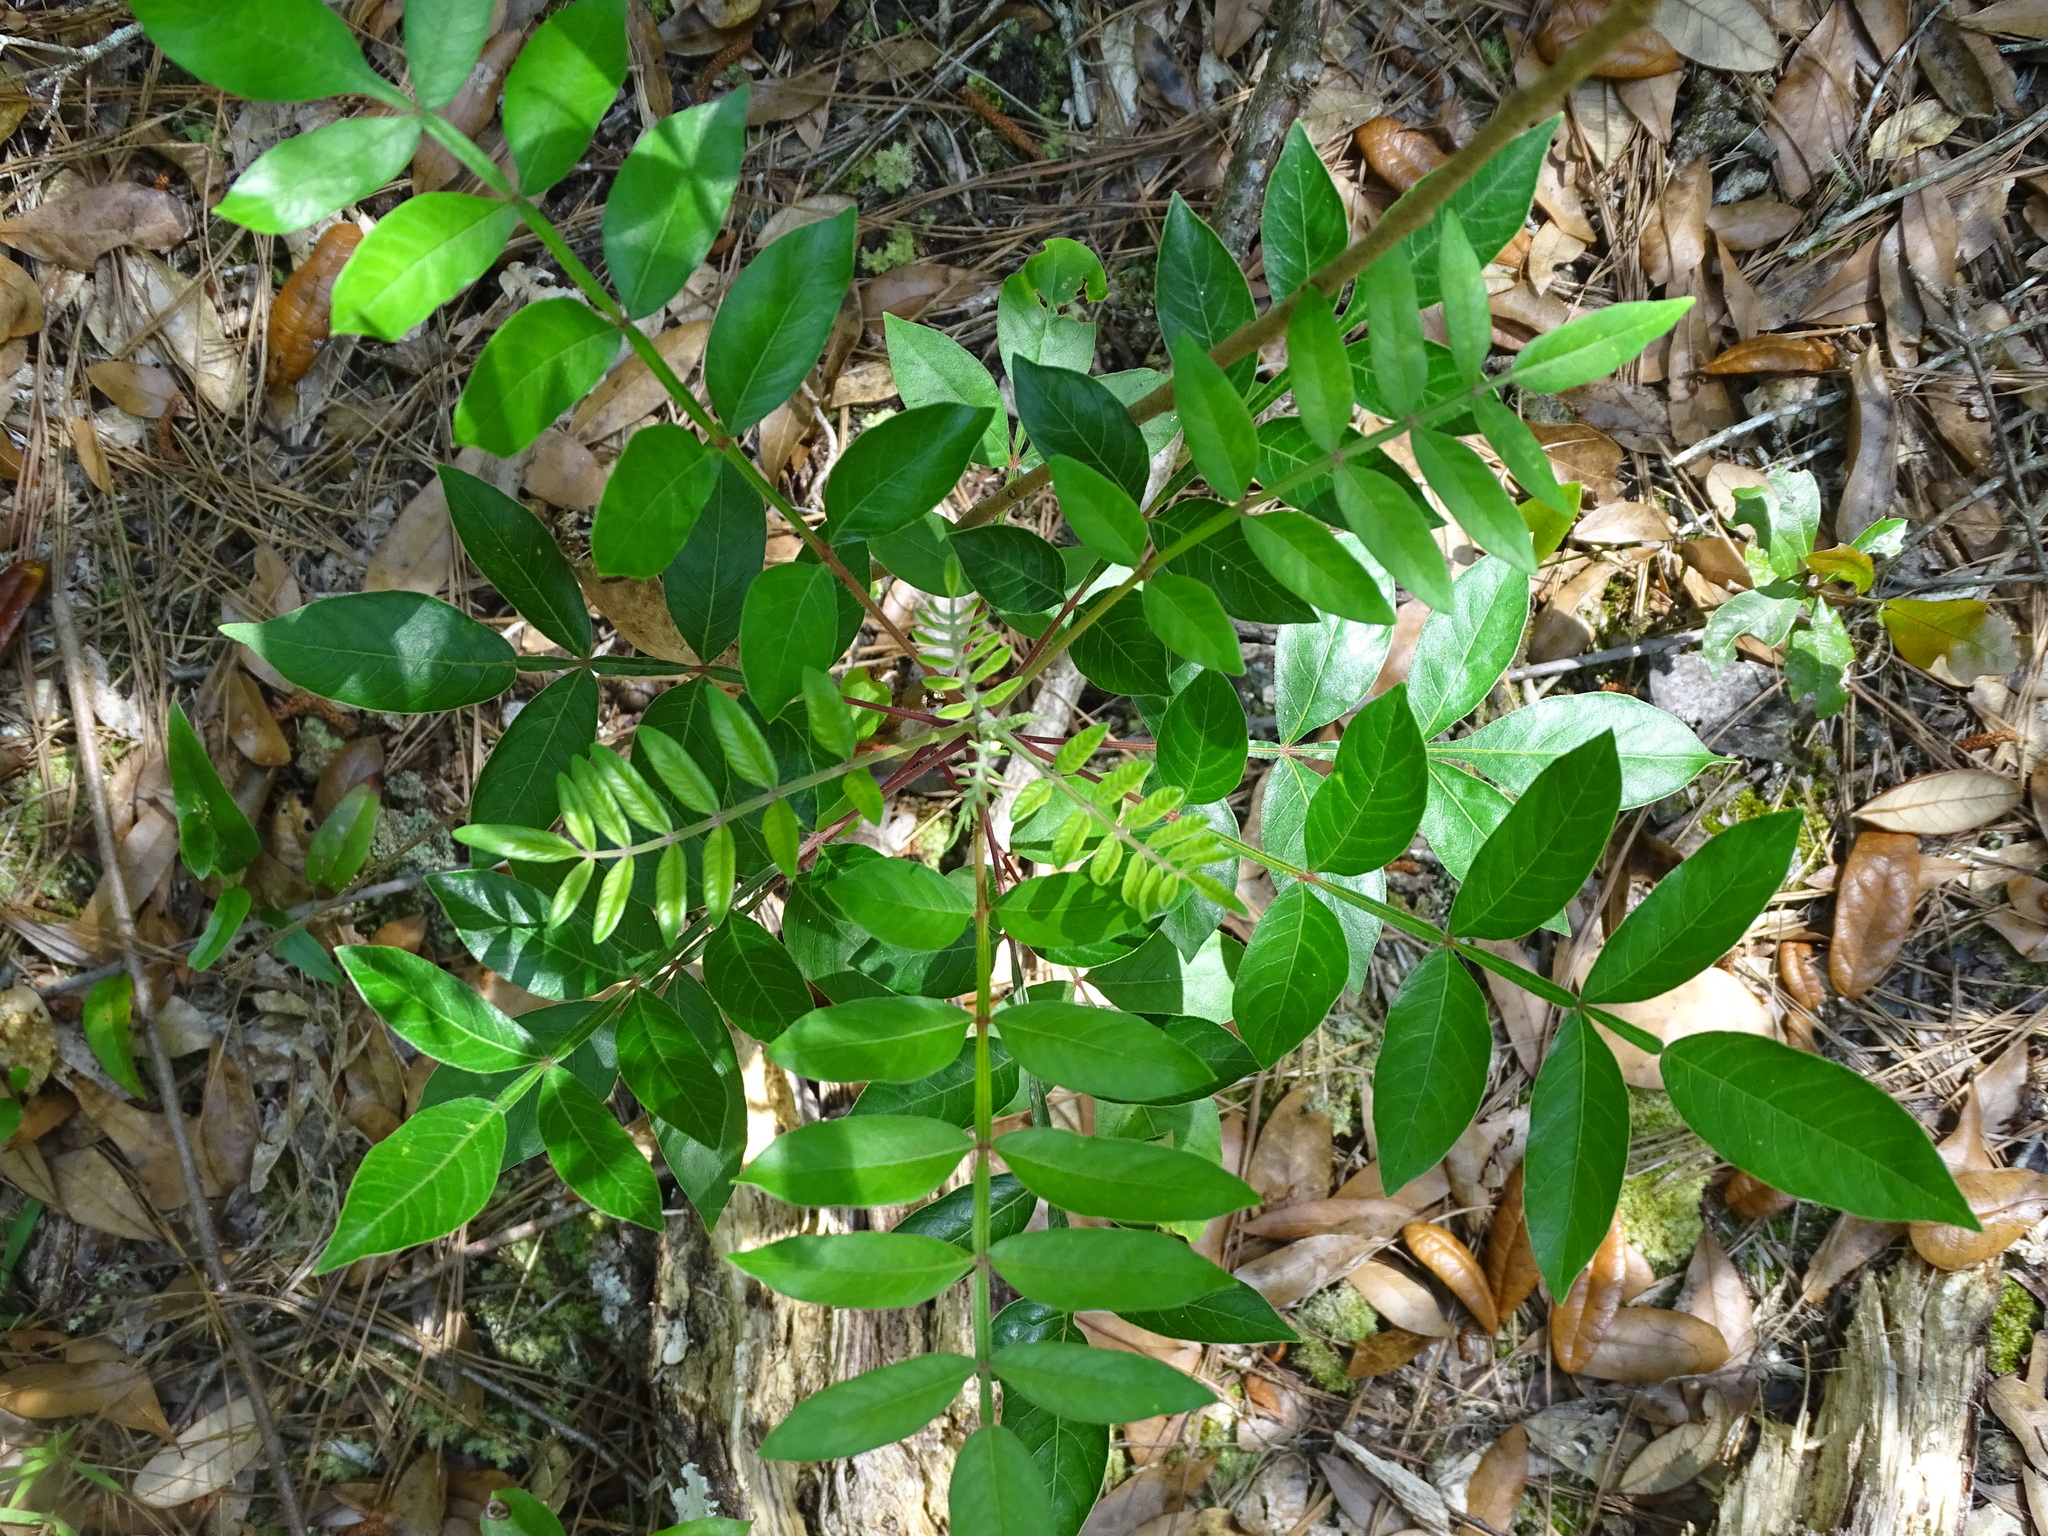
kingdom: Plantae
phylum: Tracheophyta
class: Magnoliopsida
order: Sapindales
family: Anacardiaceae
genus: Rhus
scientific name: Rhus copallina
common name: Shining sumac
